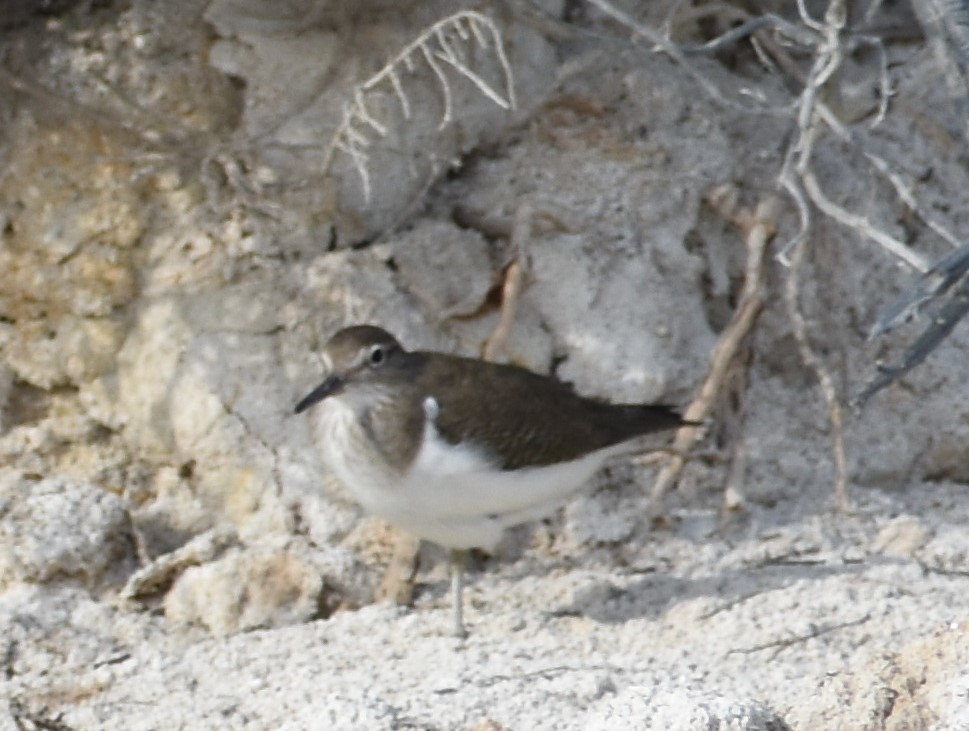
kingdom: Animalia
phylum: Chordata
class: Aves
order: Charadriiformes
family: Scolopacidae
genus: Actitis
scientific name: Actitis hypoleucos
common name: Common sandpiper
